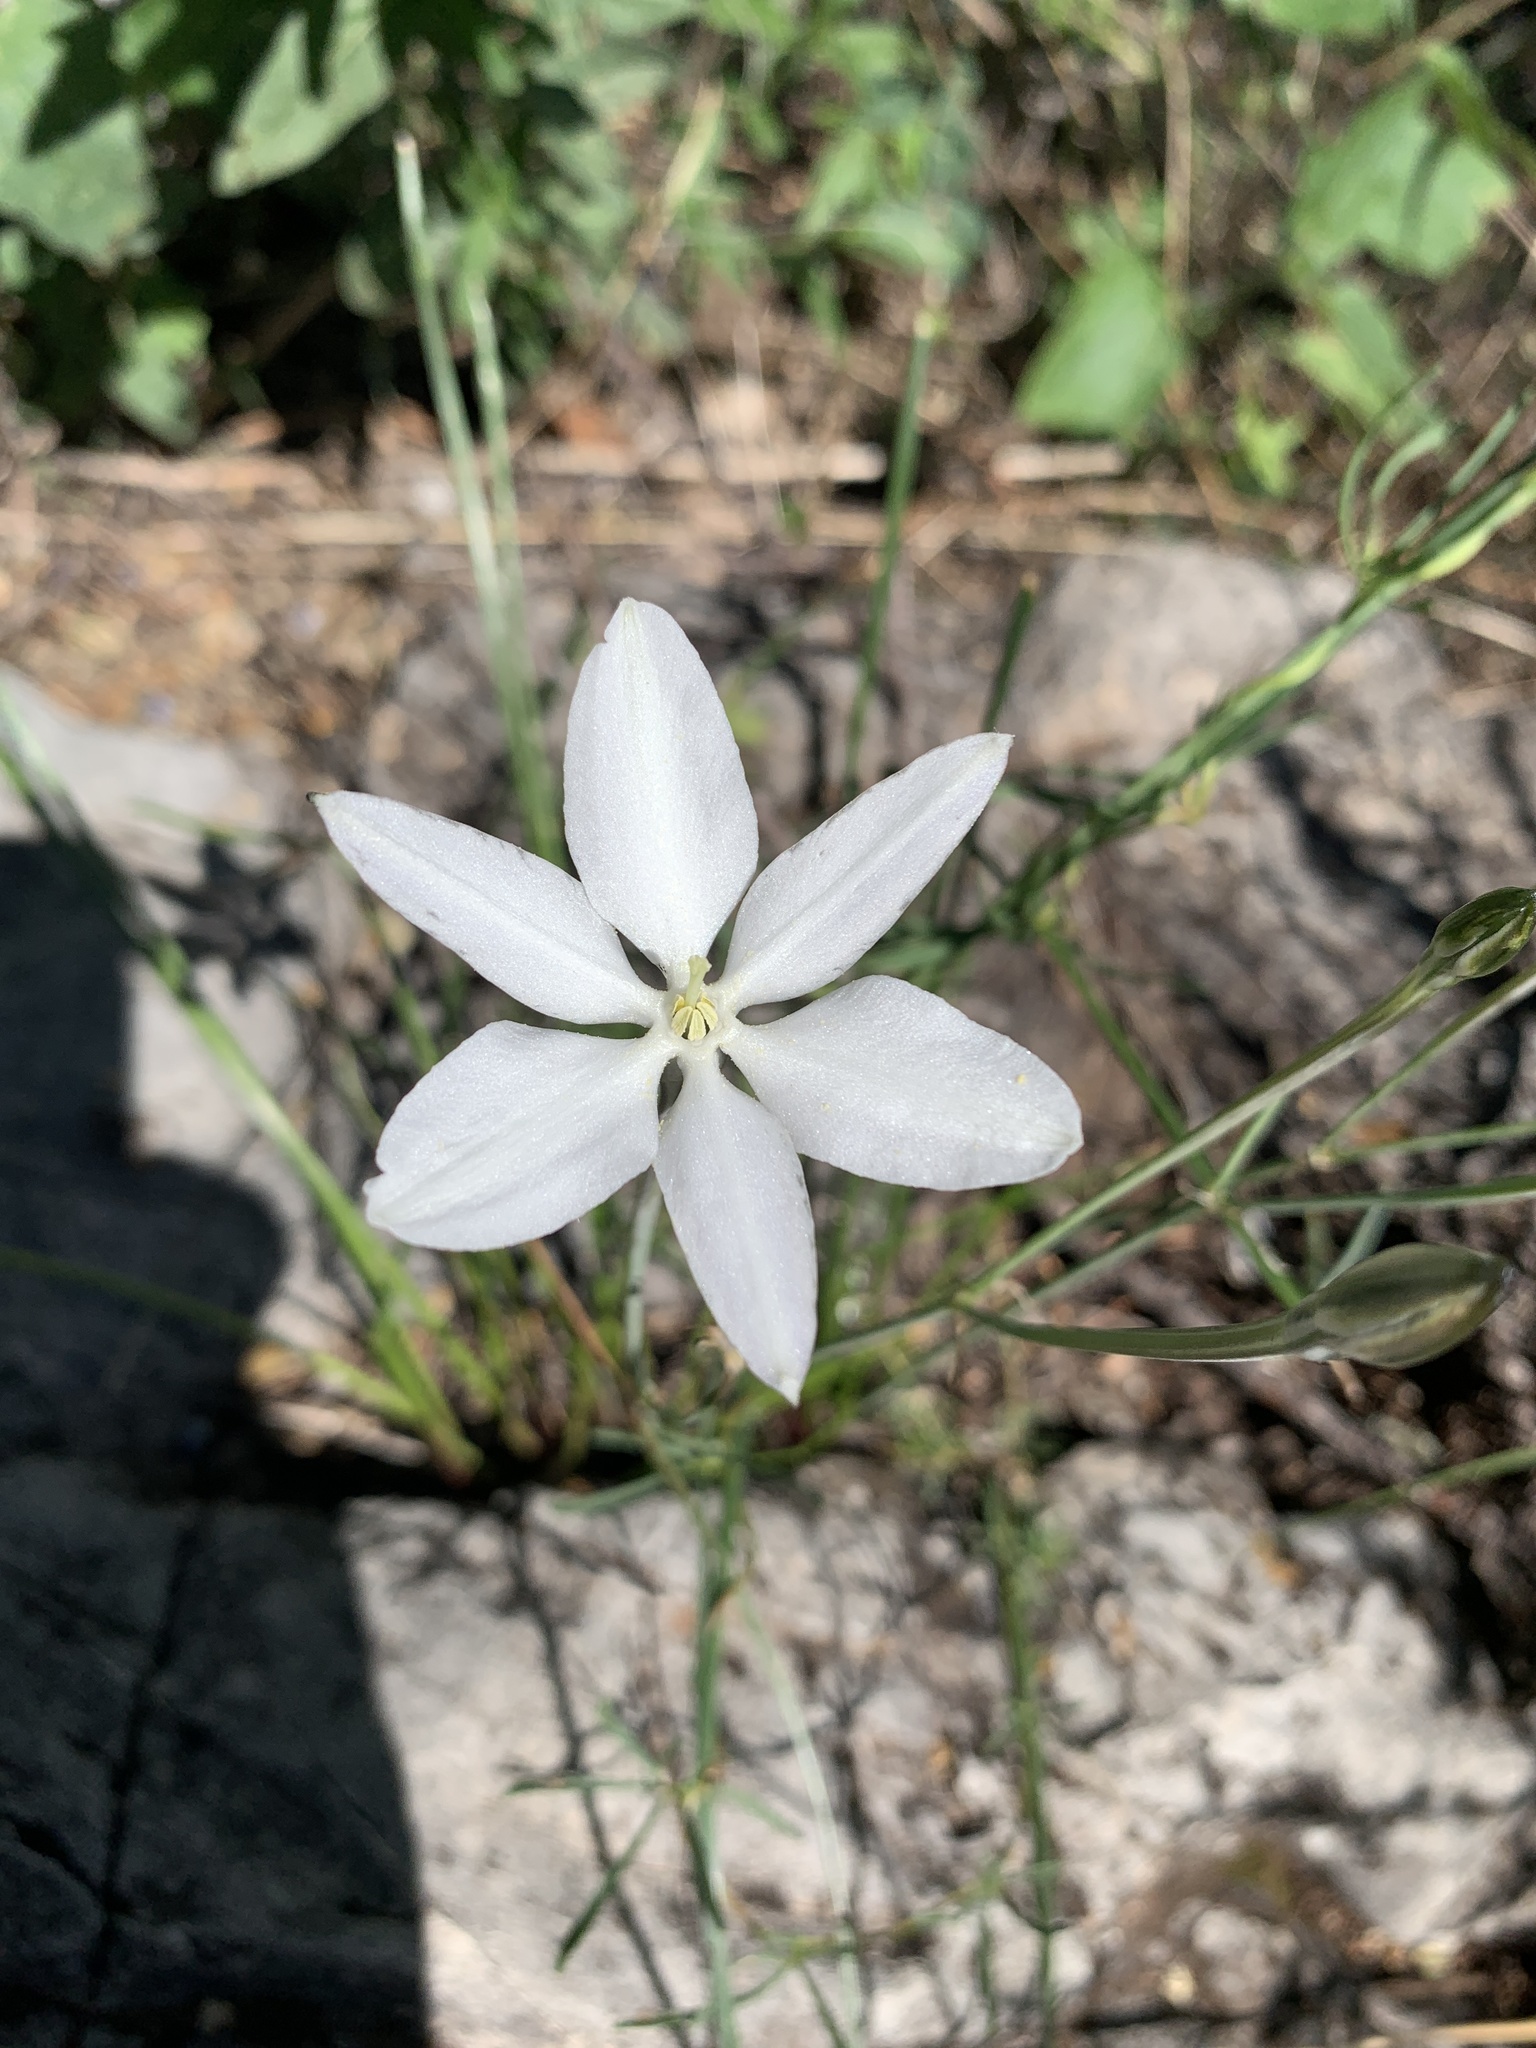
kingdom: Plantae
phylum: Tracheophyta
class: Liliopsida
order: Asparagales
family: Asparagaceae
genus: Milla
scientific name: Milla biflora
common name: Mexican-star
